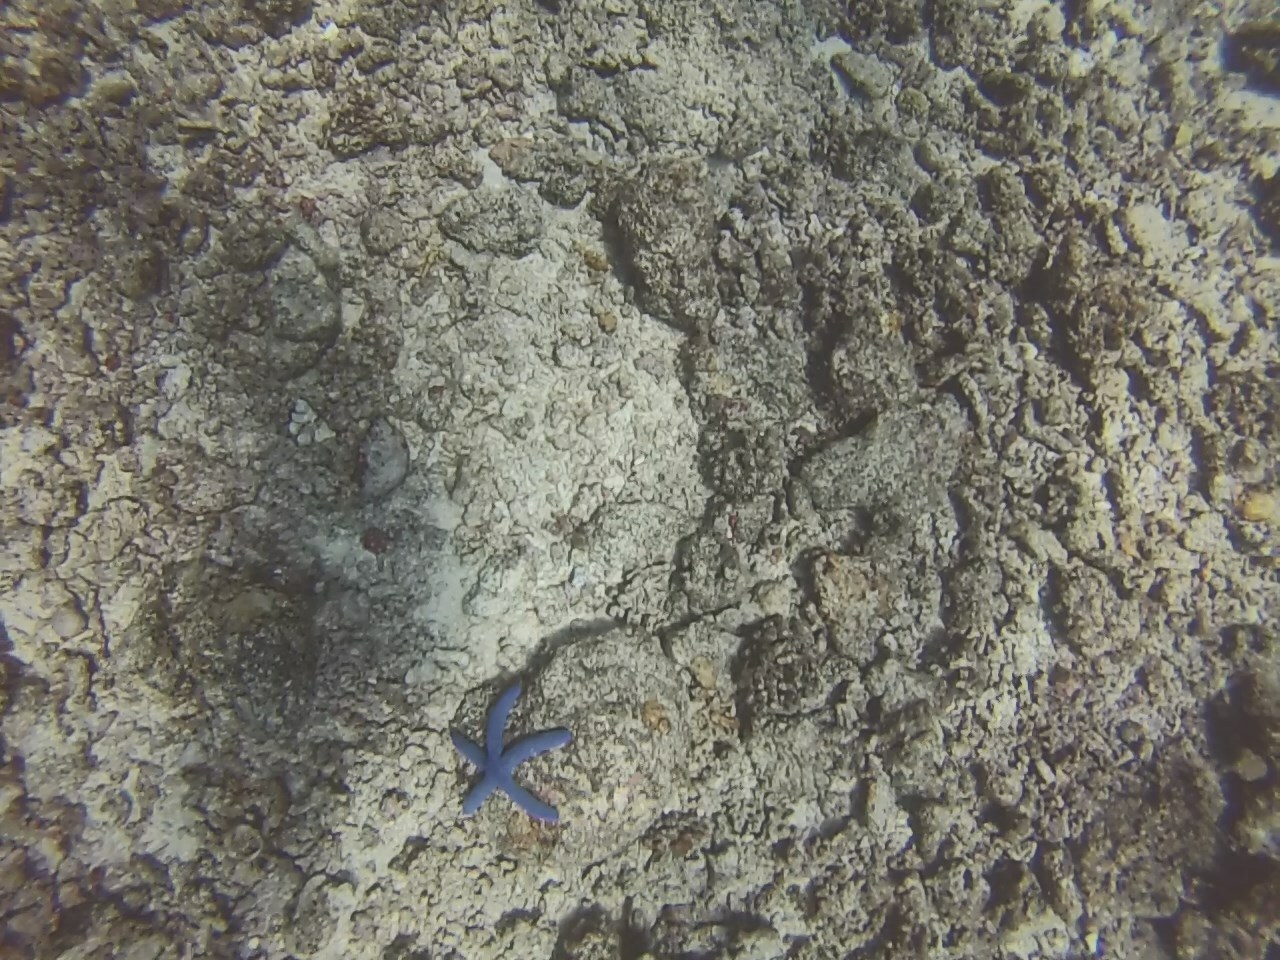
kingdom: Animalia
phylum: Echinodermata
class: Asteroidea
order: Valvatida
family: Ophidiasteridae
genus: Linckia
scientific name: Linckia laevigata
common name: Azure sea star
